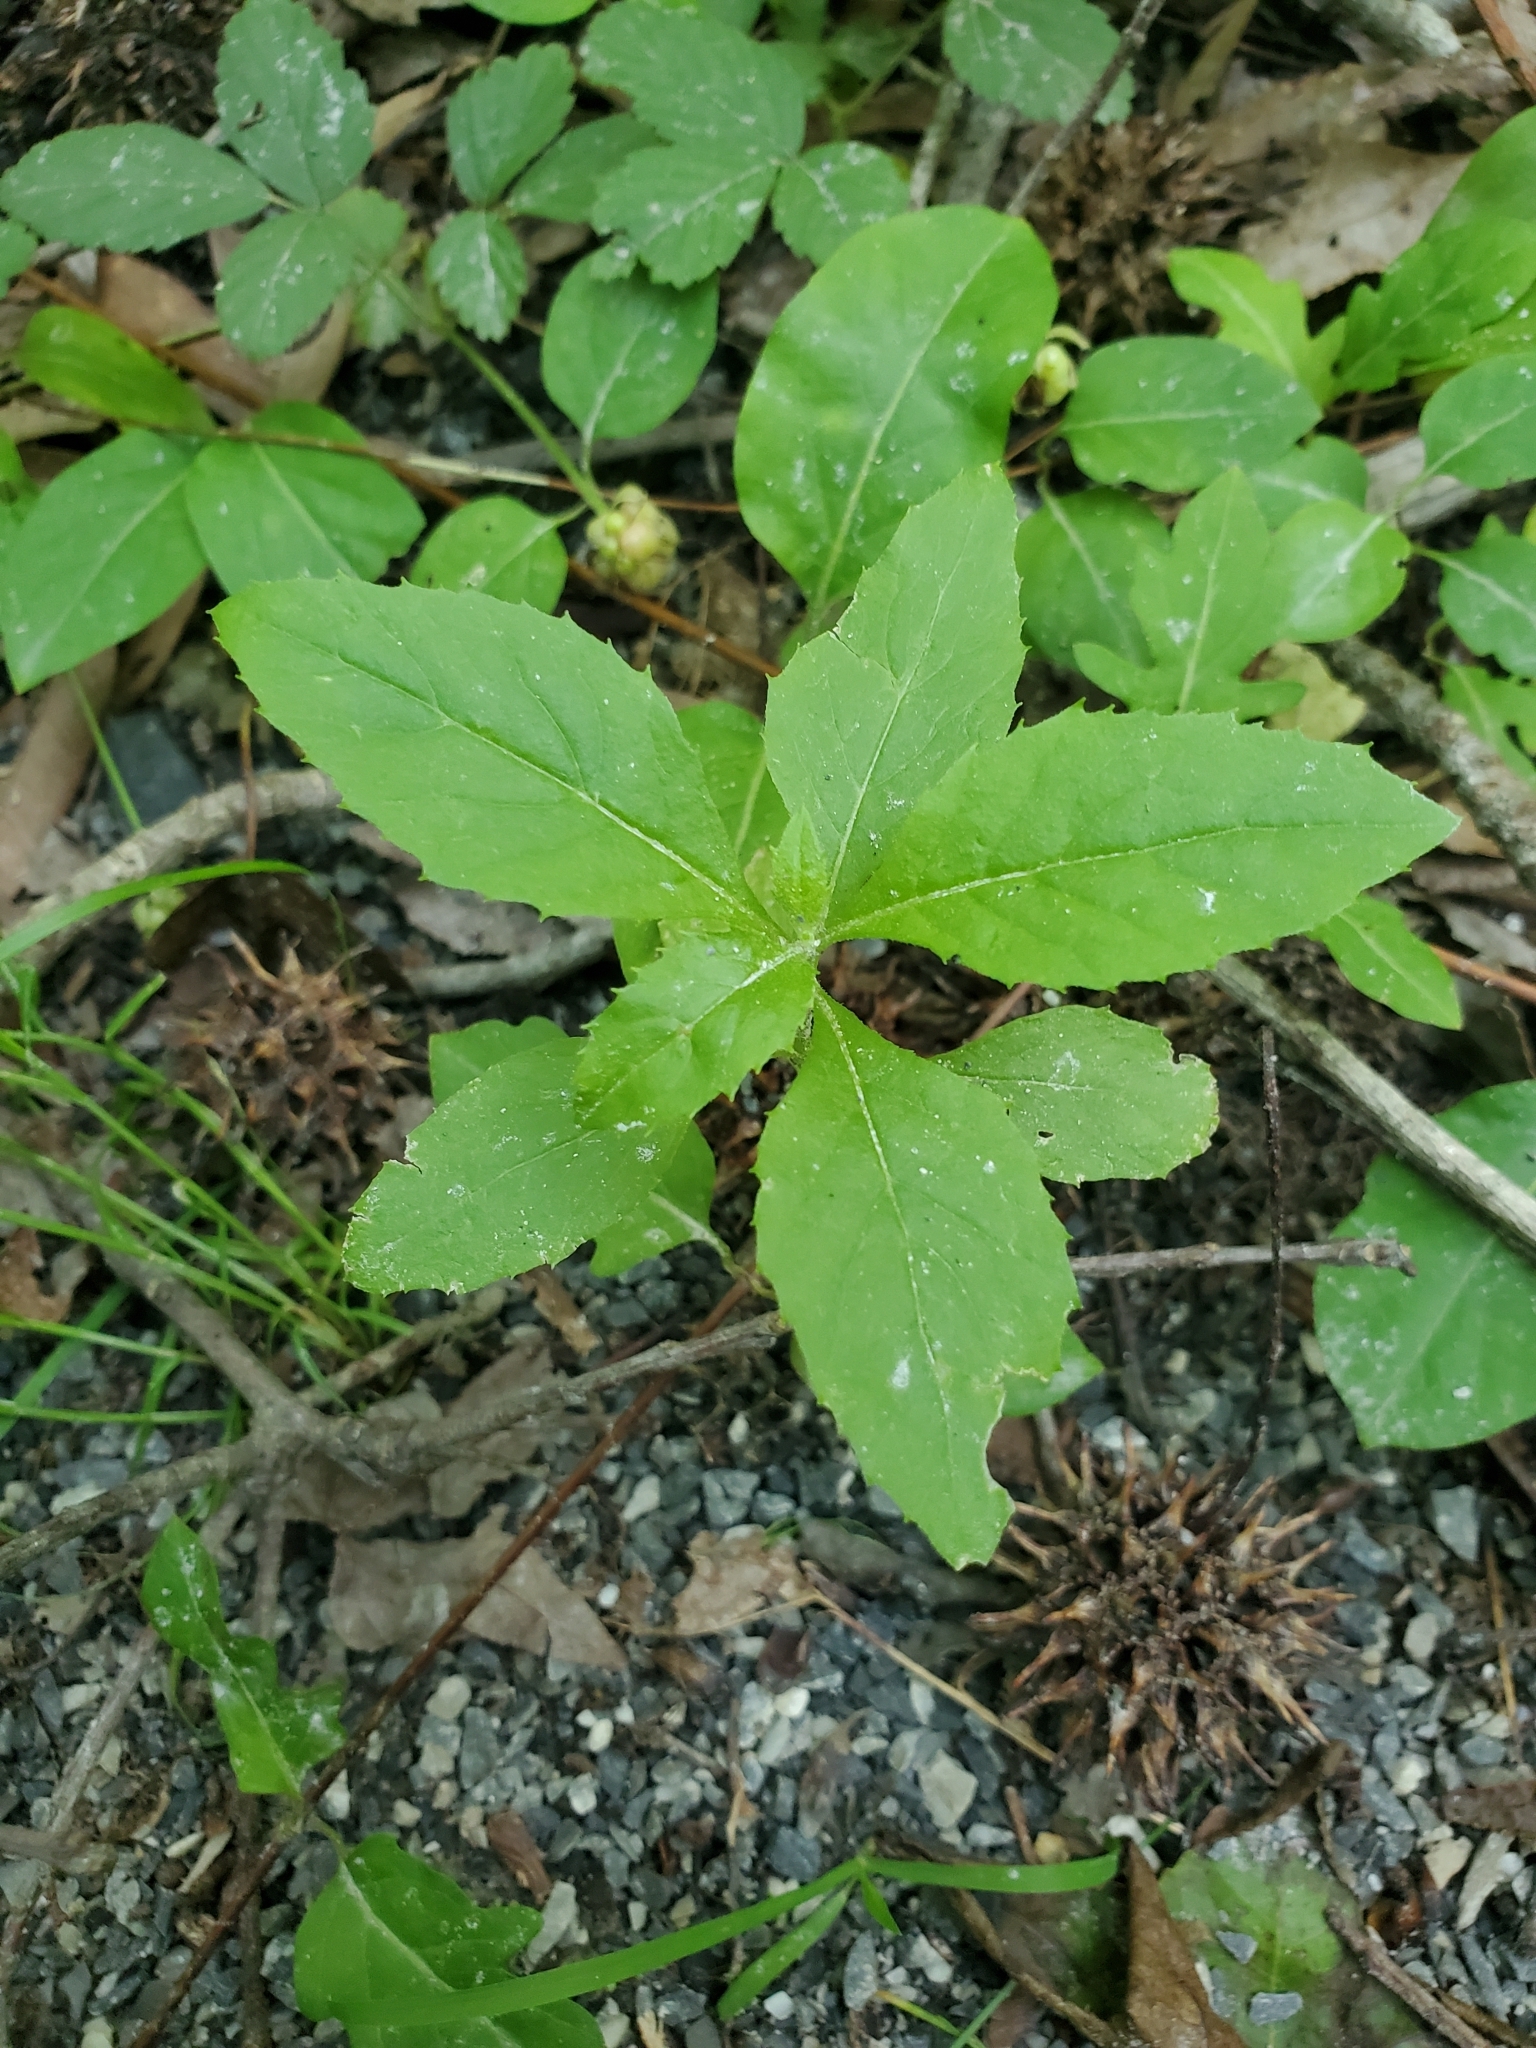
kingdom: Plantae
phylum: Tracheophyta
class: Magnoliopsida
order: Asterales
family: Asteraceae
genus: Erechtites
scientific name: Erechtites hieraciifolius
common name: American burnweed
